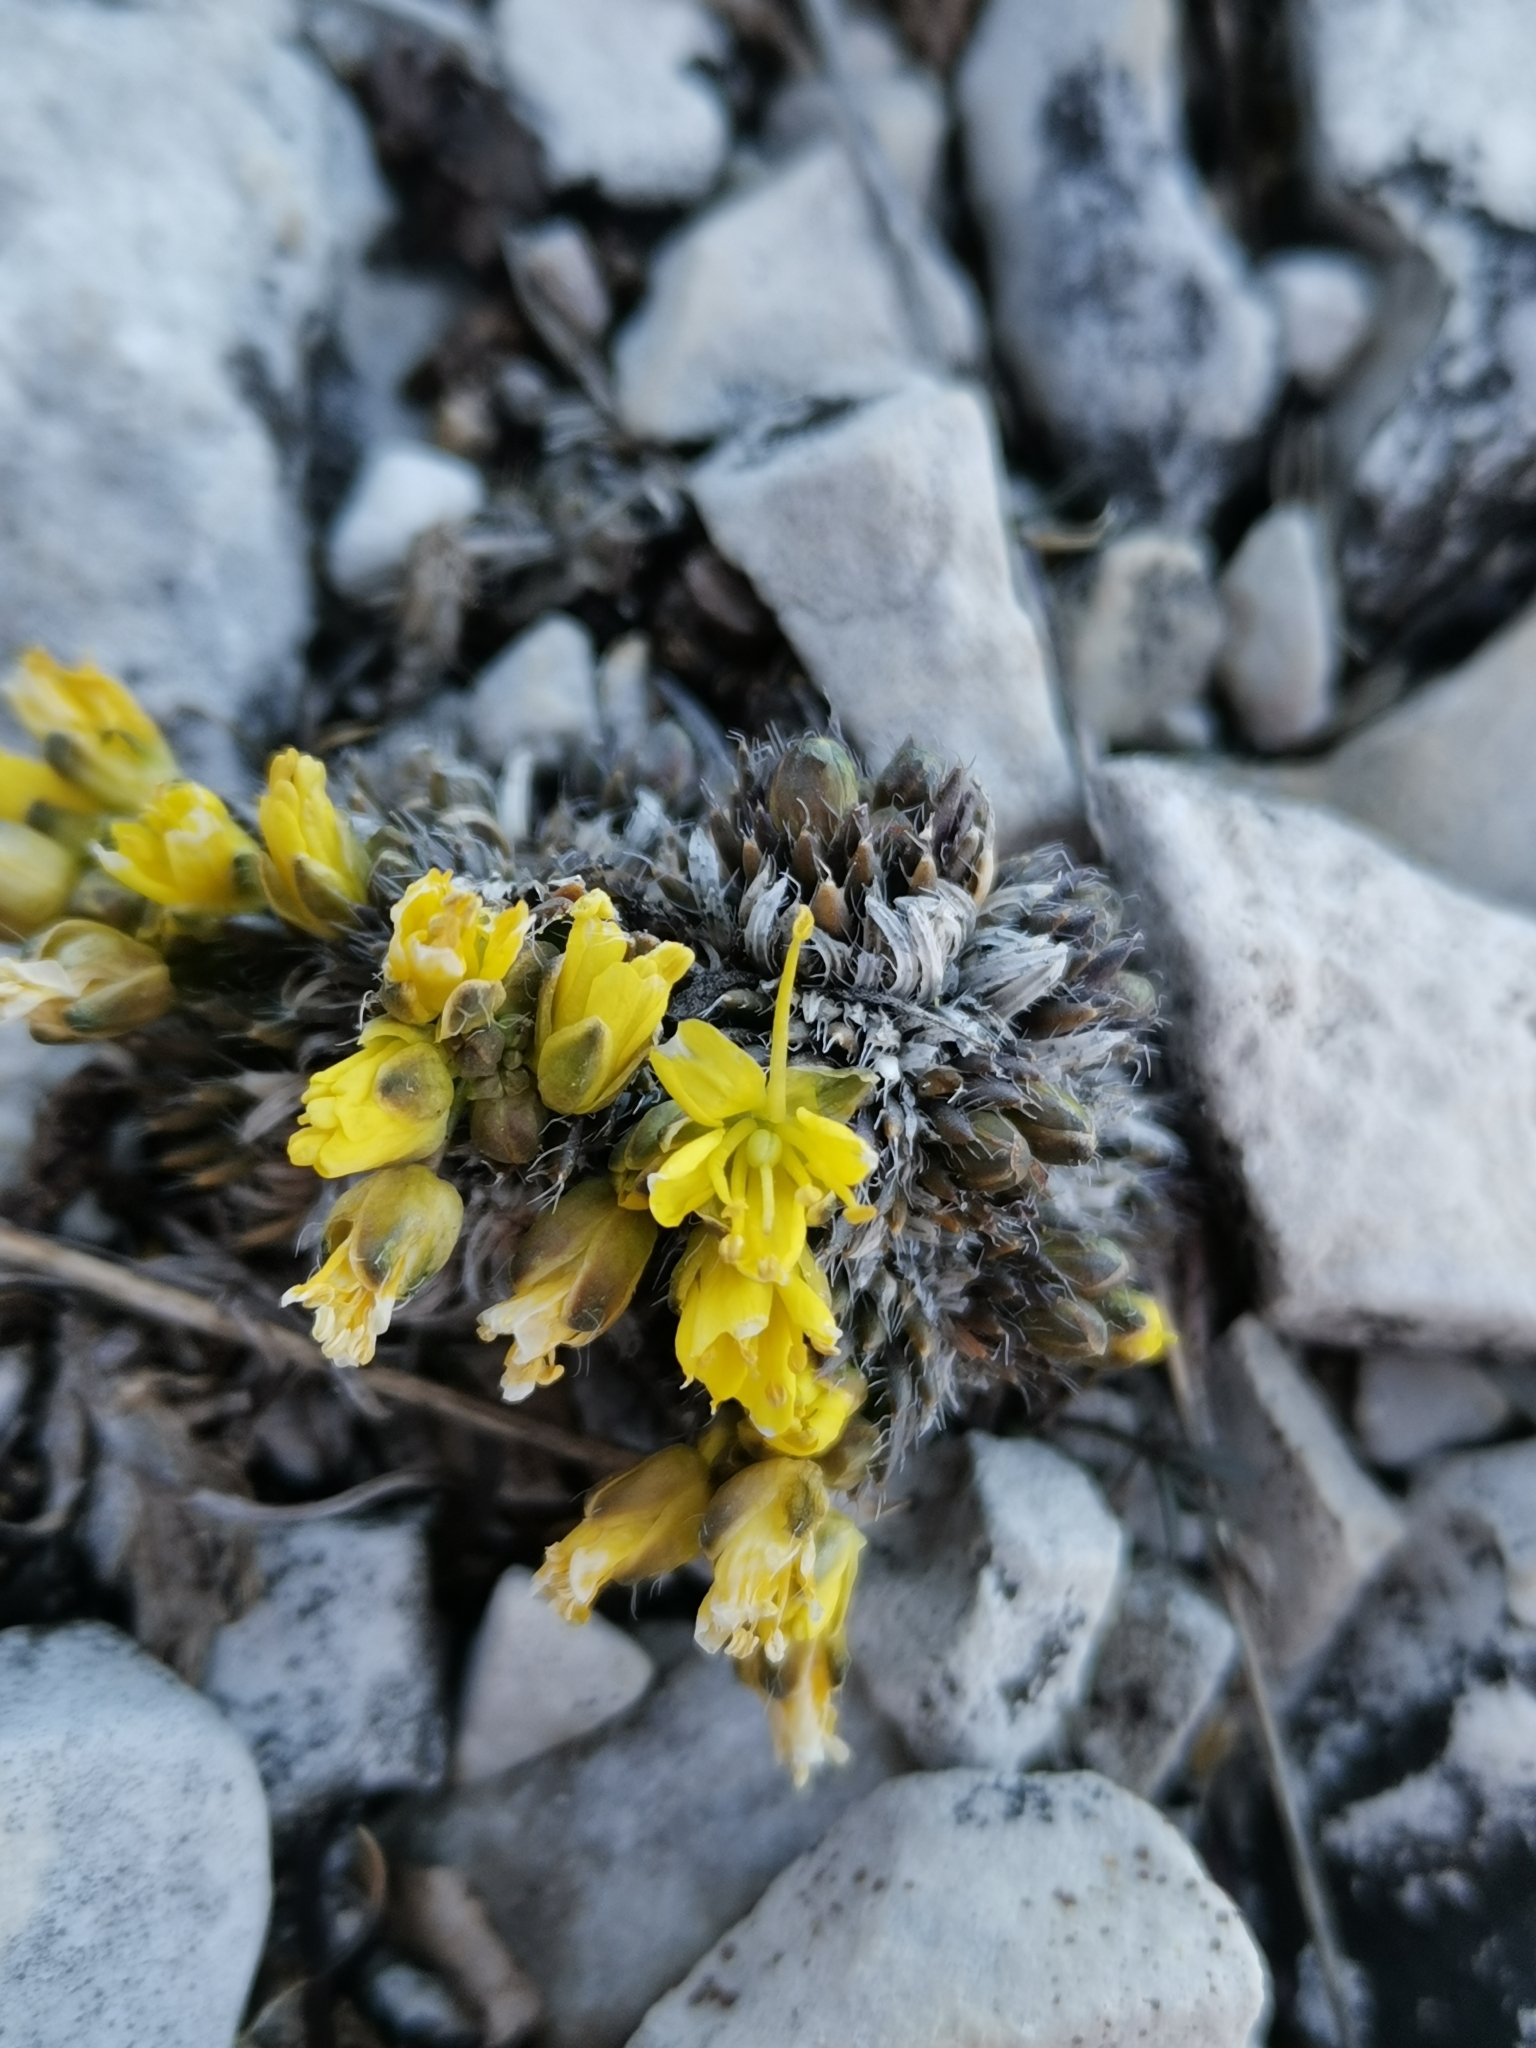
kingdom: Plantae
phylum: Tracheophyta
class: Magnoliopsida
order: Brassicales
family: Brassicaceae
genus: Draba
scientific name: Draba aizoides
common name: Yellow whitlowgrass
